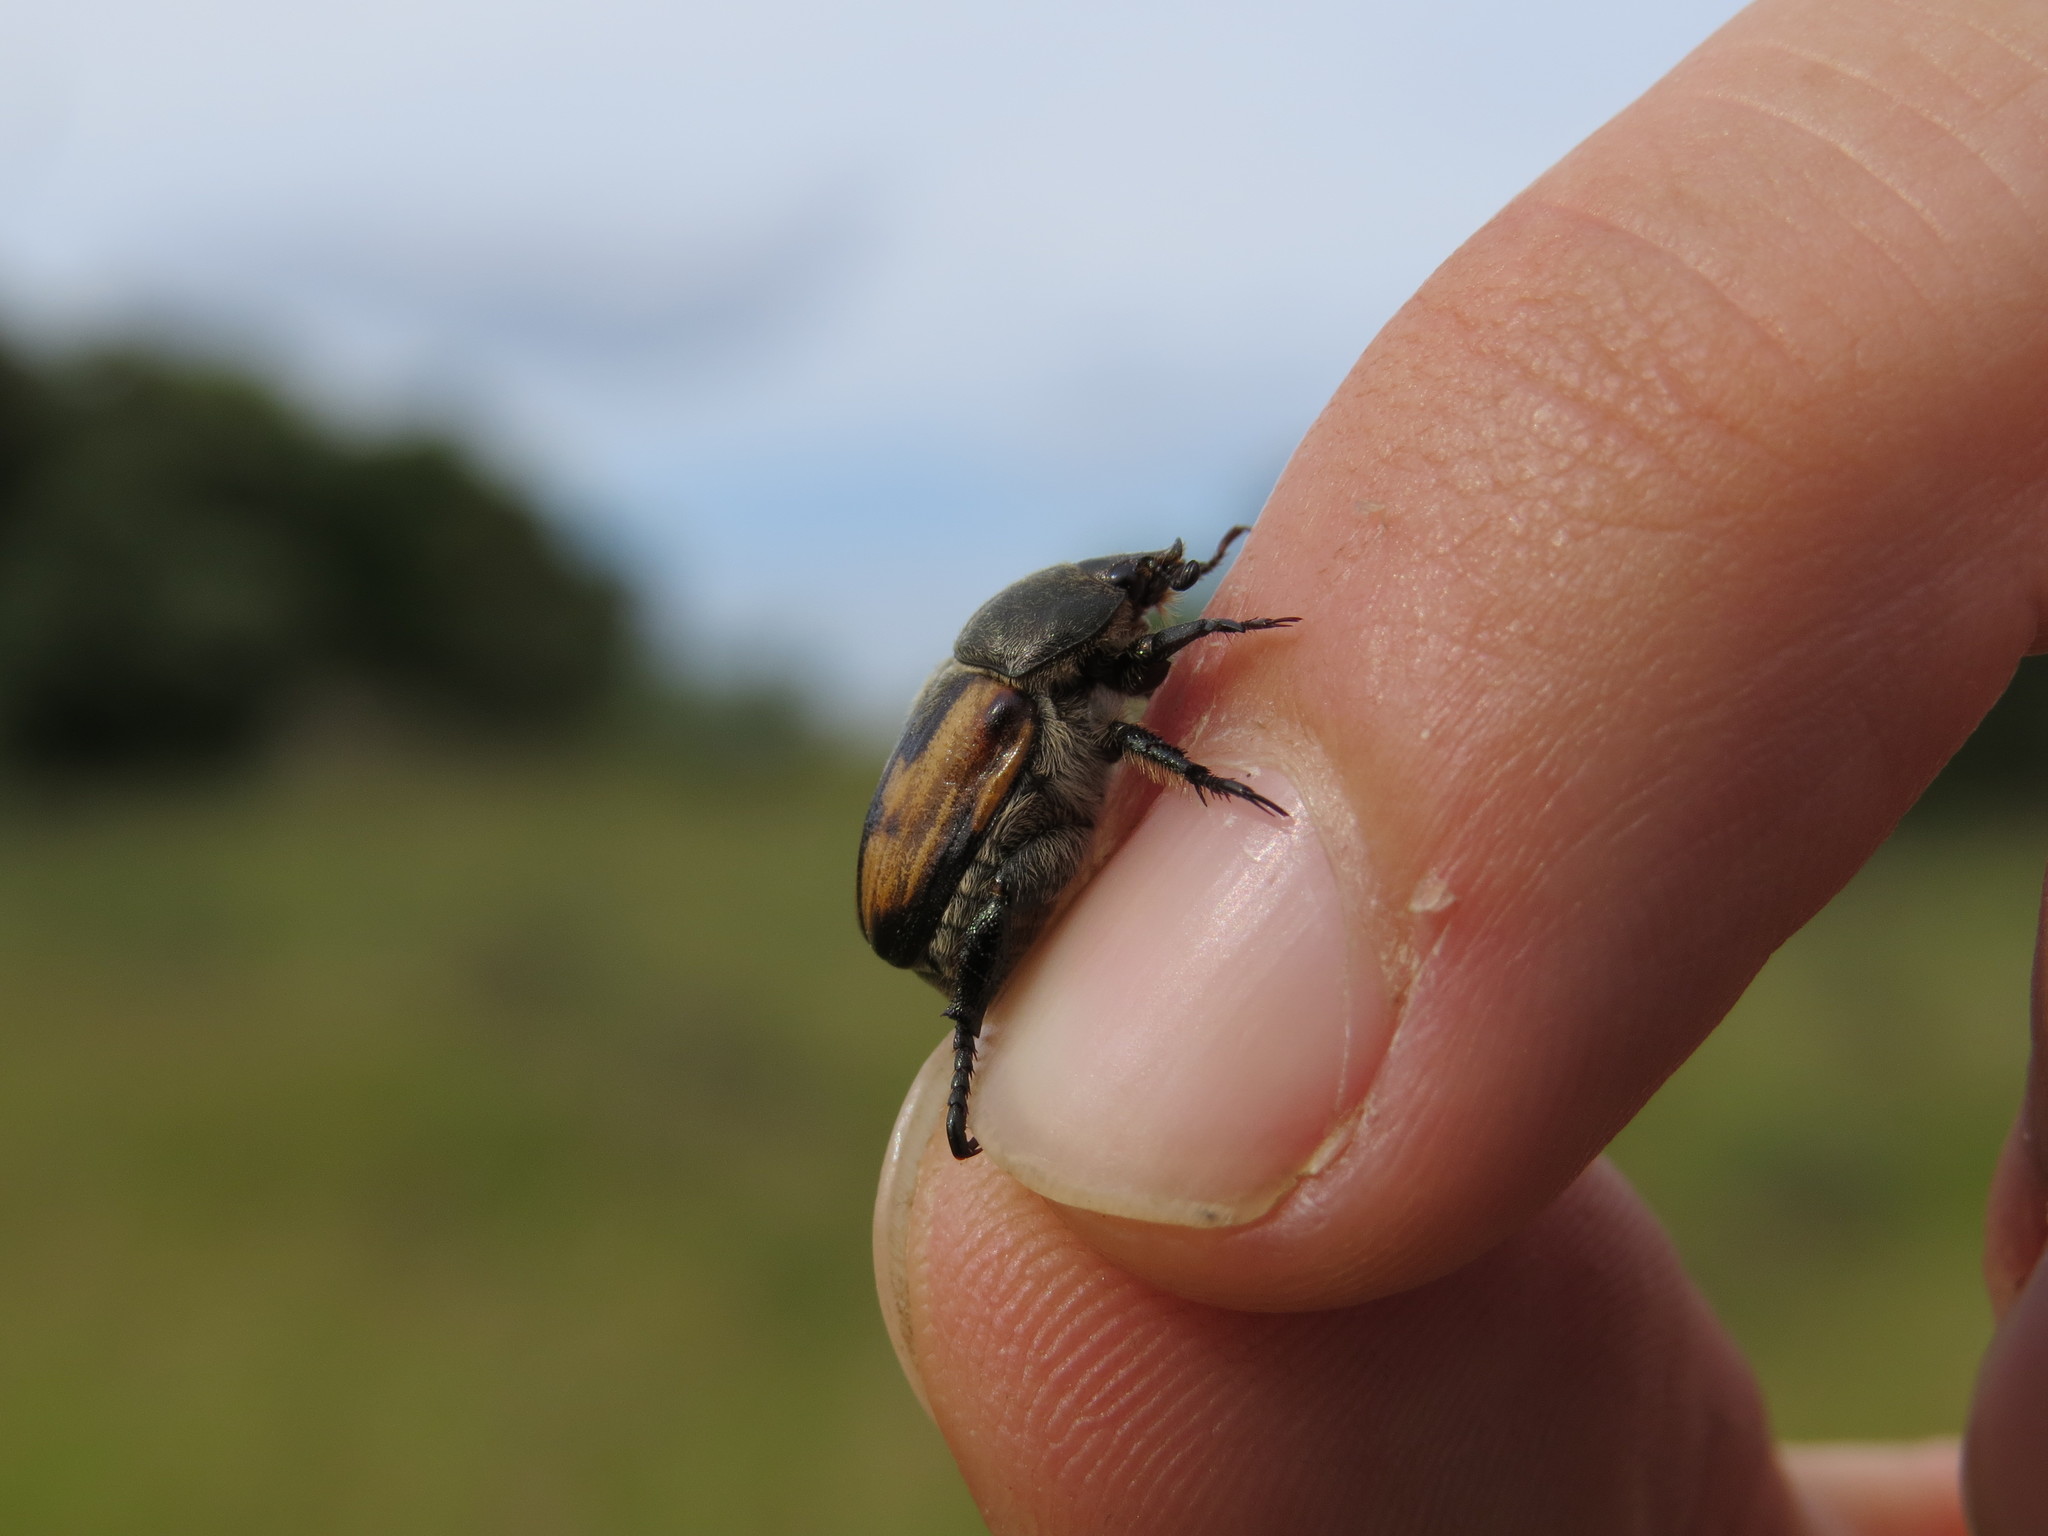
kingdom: Animalia
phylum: Arthropoda
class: Insecta
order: Coleoptera
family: Scarabaeidae
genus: Anisoplia
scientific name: Anisoplia tempestiva
